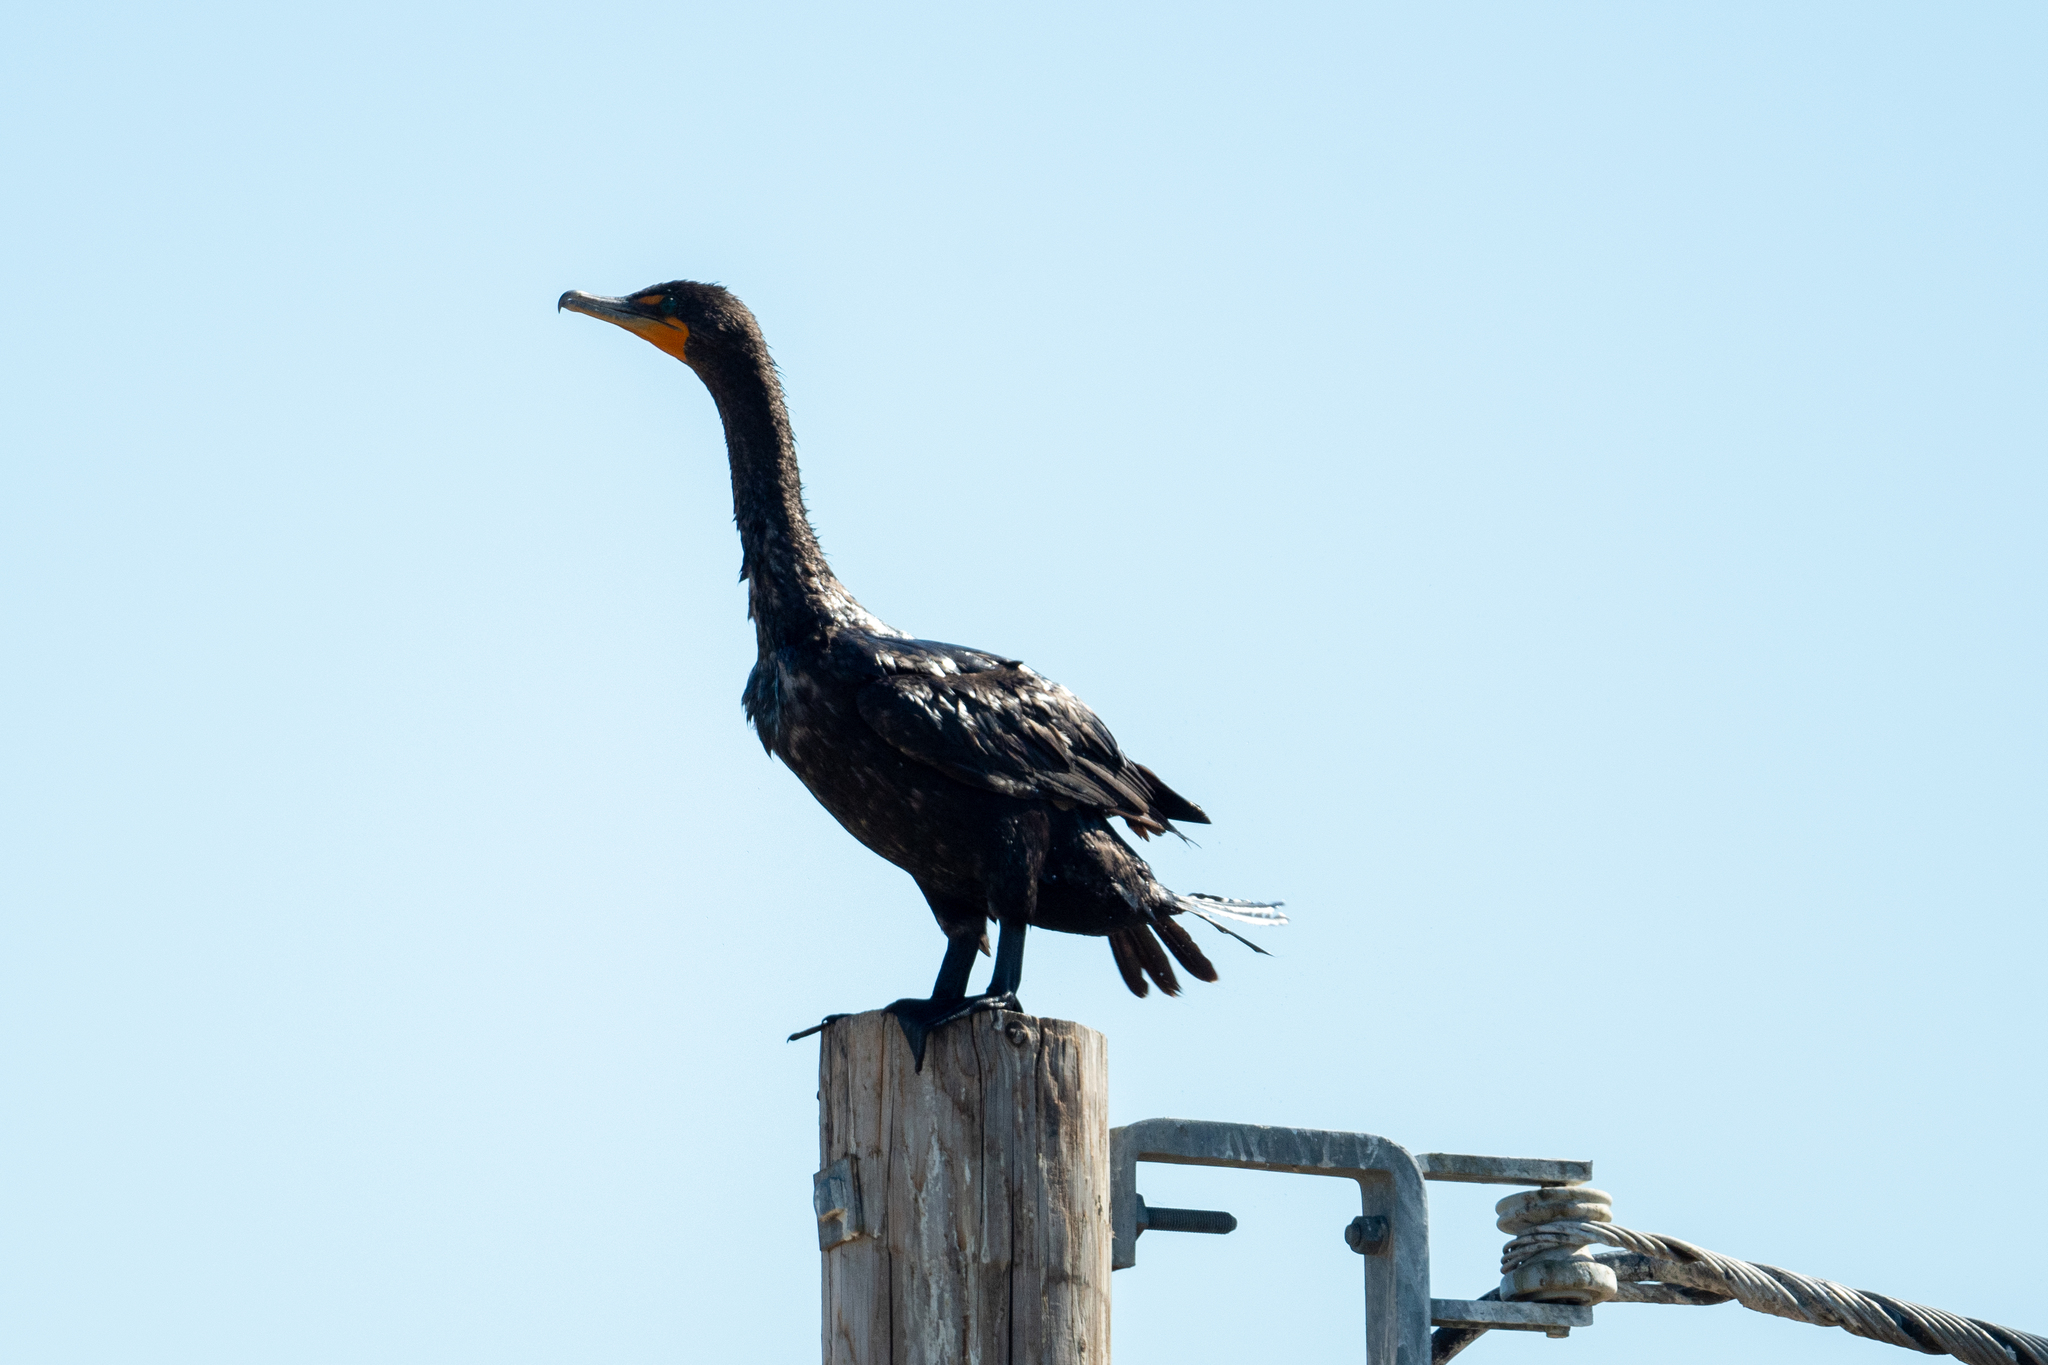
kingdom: Animalia
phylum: Chordata
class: Aves
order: Suliformes
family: Phalacrocoracidae
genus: Phalacrocorax
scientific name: Phalacrocorax auritus
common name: Double-crested cormorant
